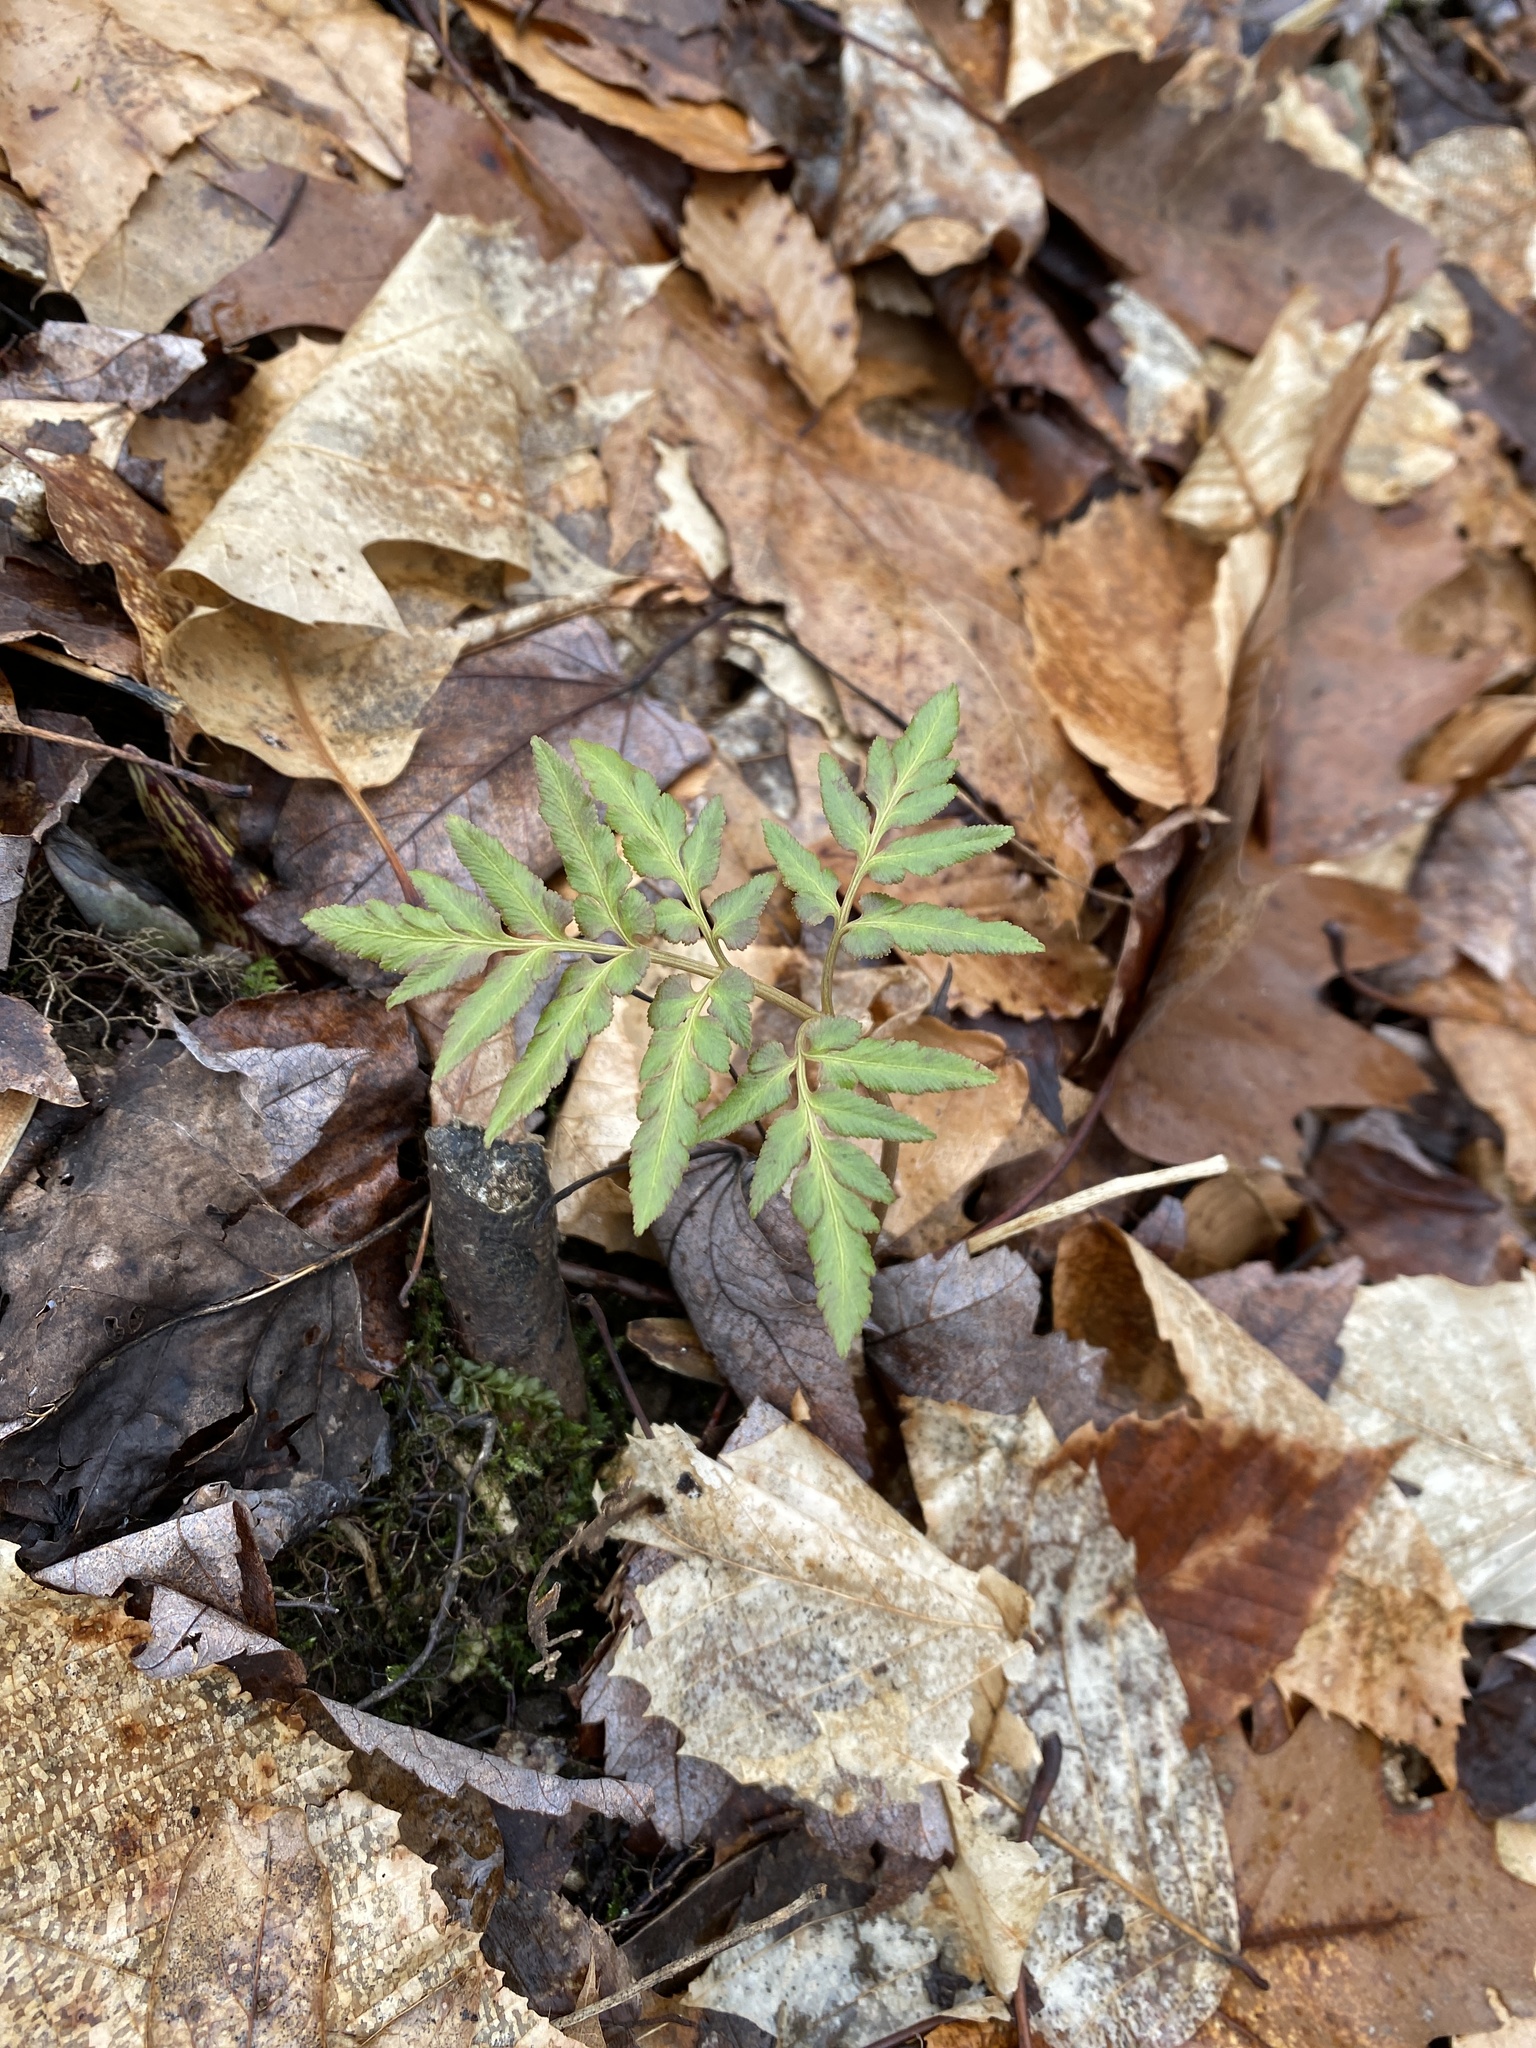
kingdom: Plantae
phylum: Tracheophyta
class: Polypodiopsida
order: Ophioglossales
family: Ophioglossaceae
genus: Sceptridium
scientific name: Sceptridium dissectum
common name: Cut-leaved grapefern
